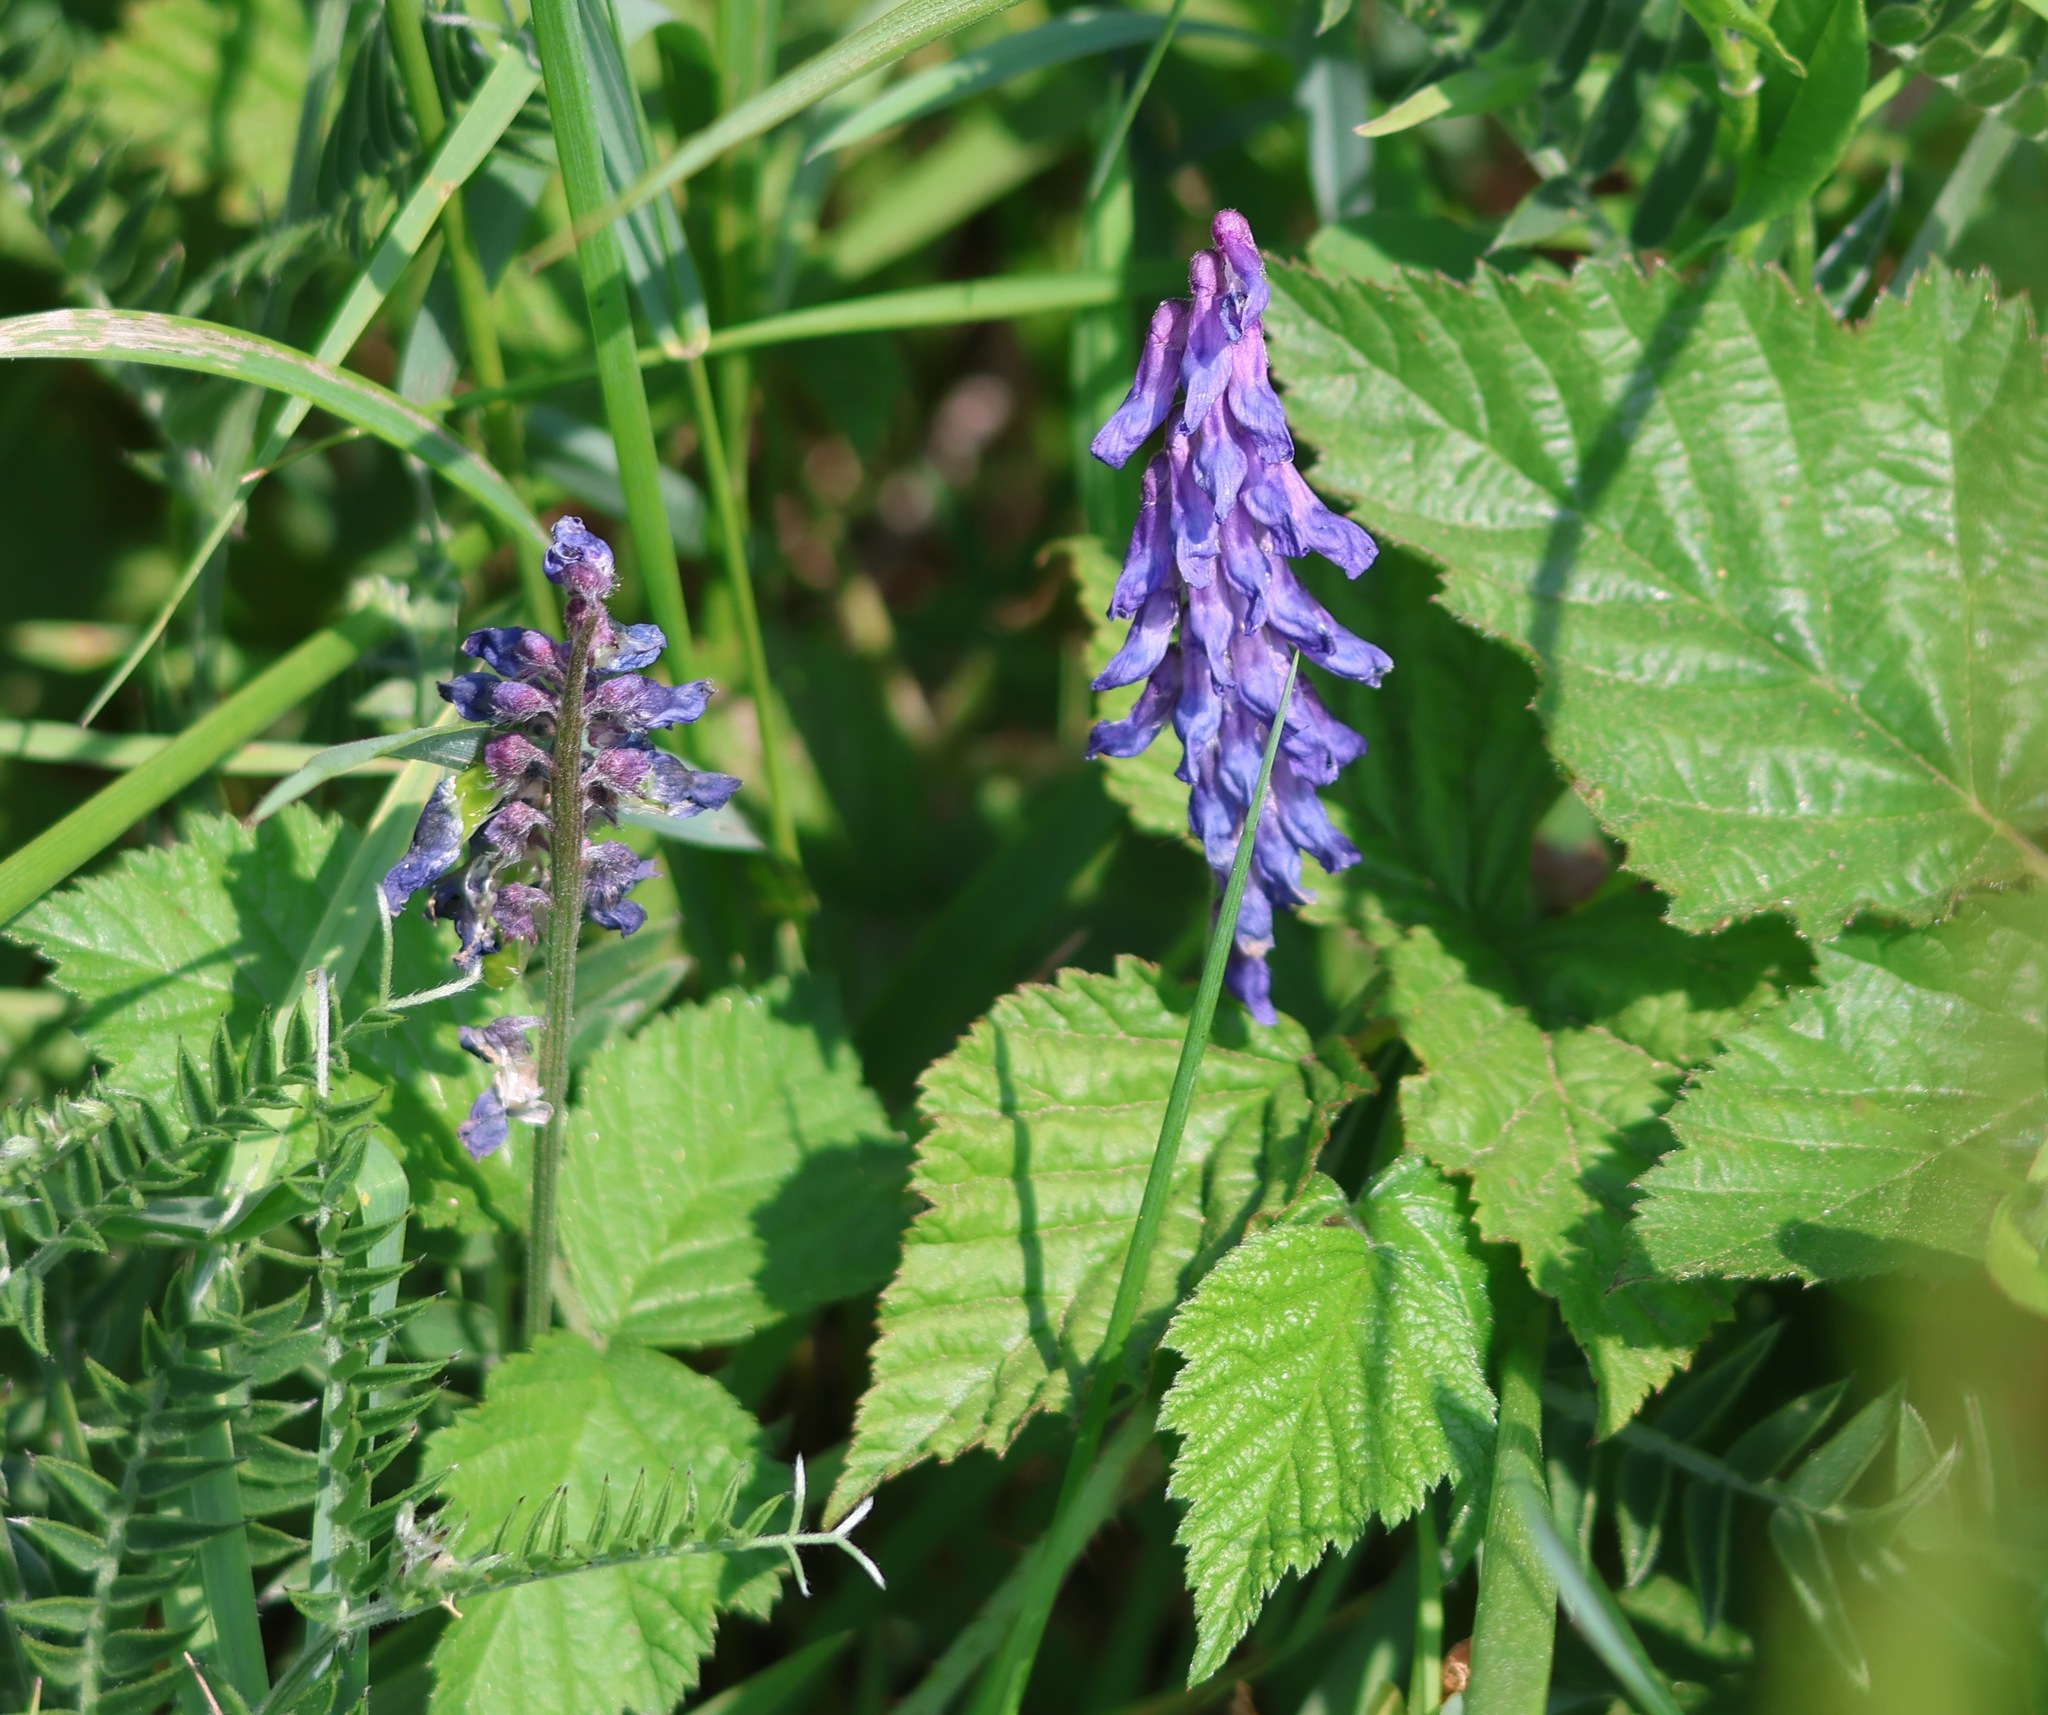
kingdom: Plantae
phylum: Tracheophyta
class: Magnoliopsida
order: Fabales
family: Fabaceae
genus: Vicia
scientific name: Vicia cracca
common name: Bird vetch
